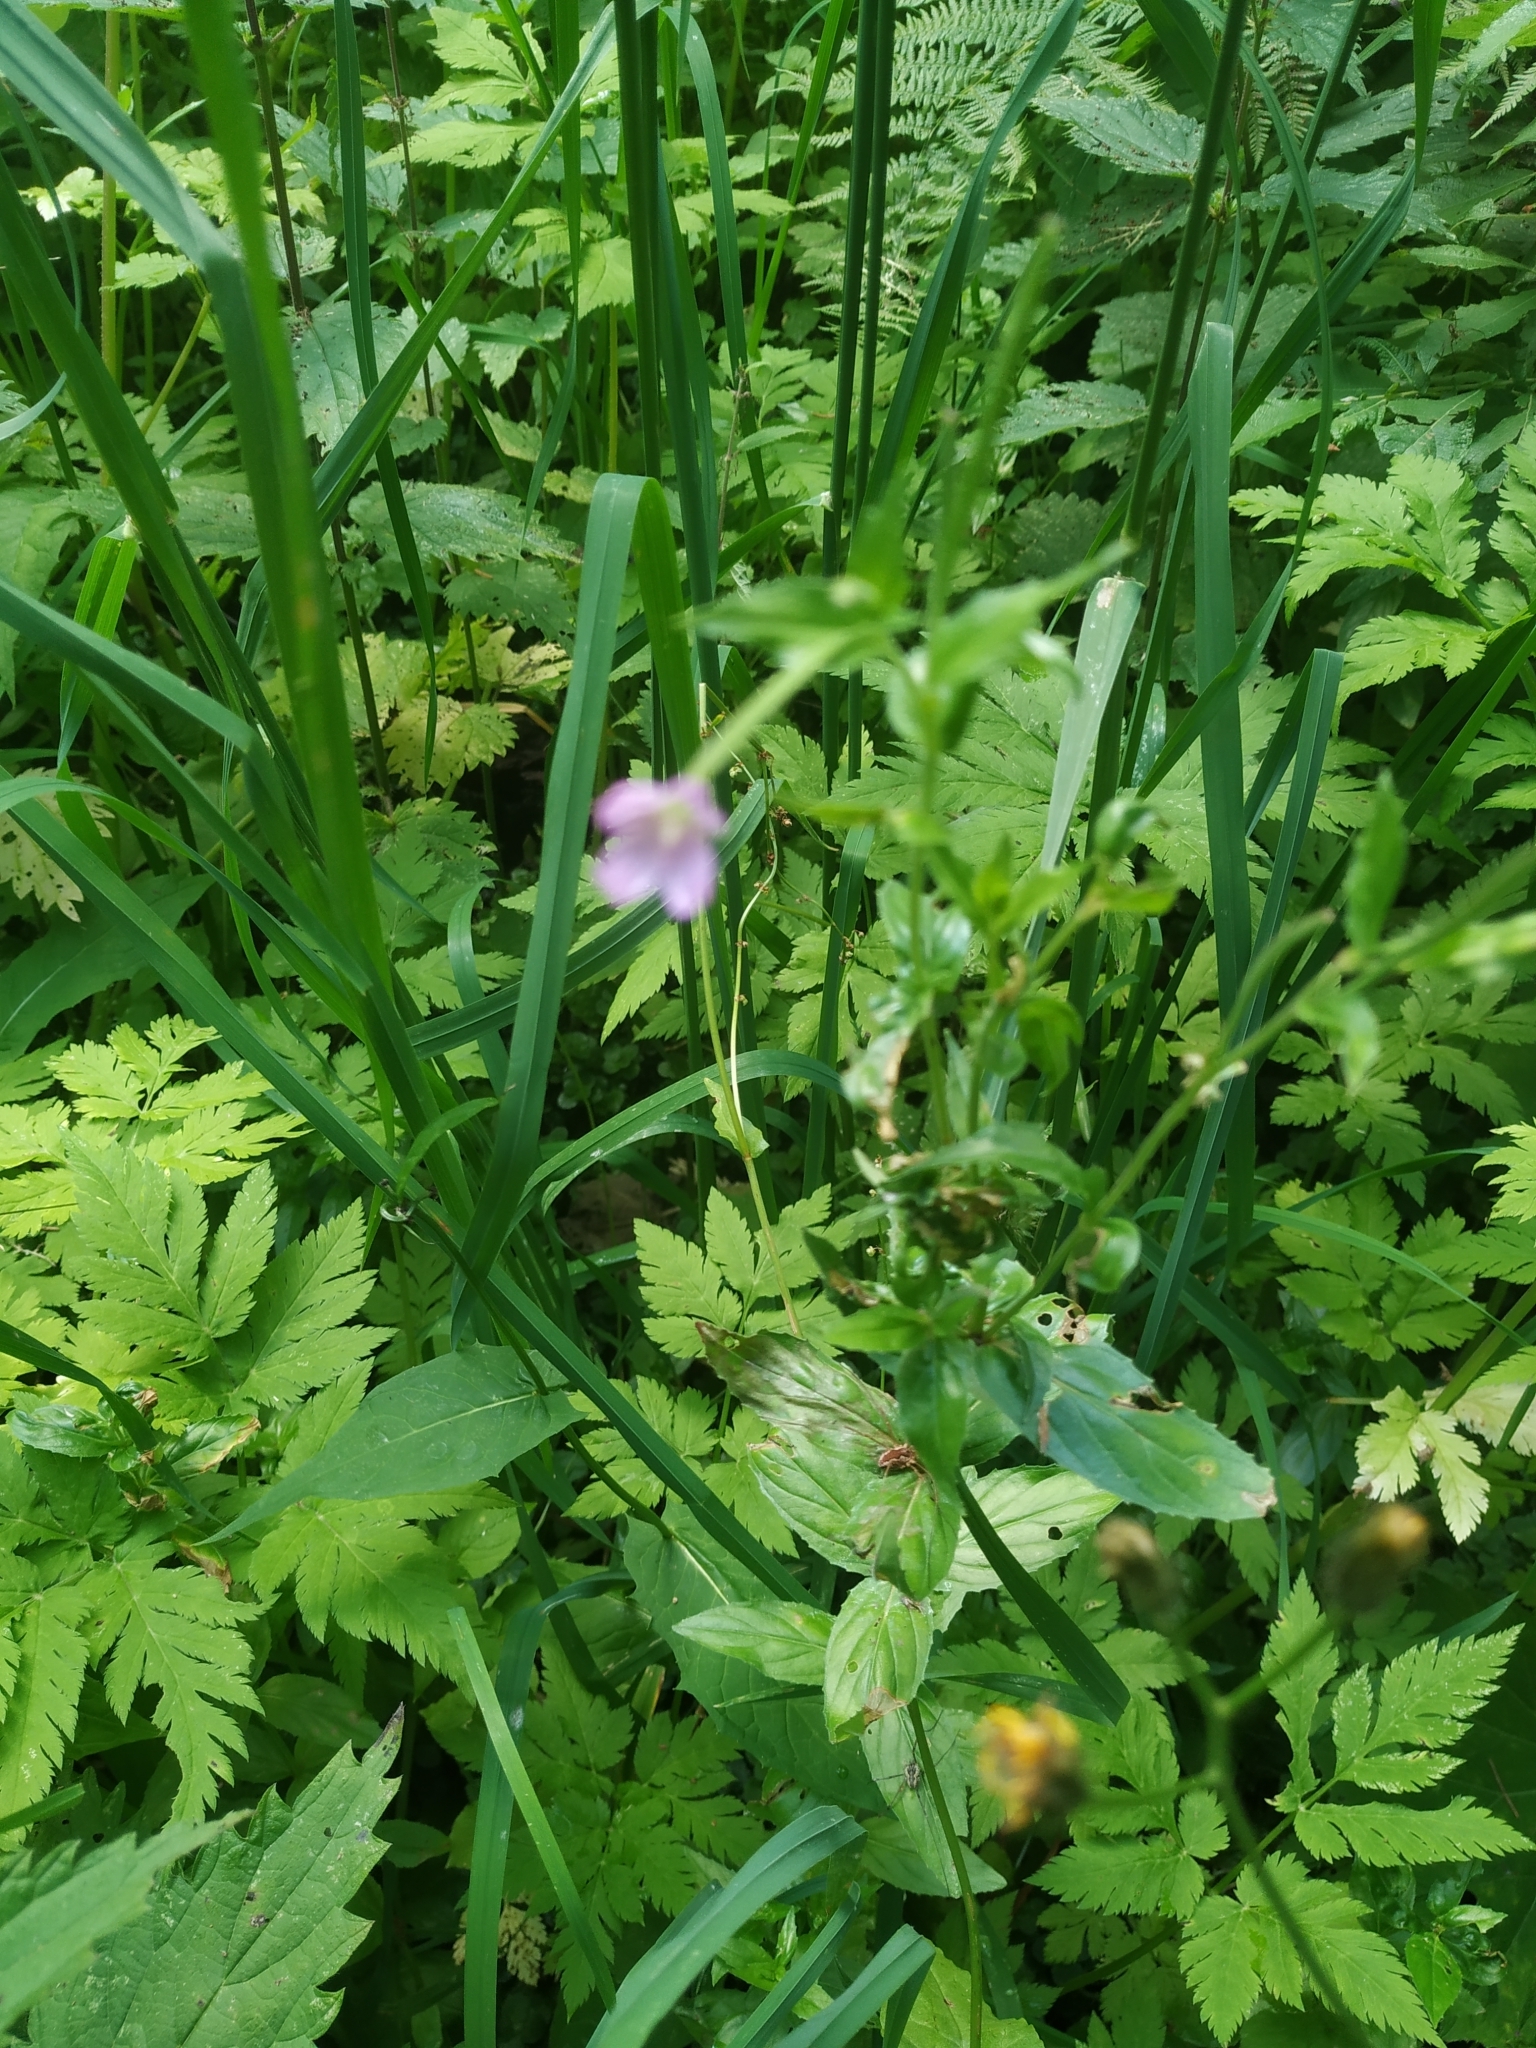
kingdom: Plantae
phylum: Tracheophyta
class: Magnoliopsida
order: Myrtales
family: Onagraceae
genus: Epilobium
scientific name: Epilobium alpestre
